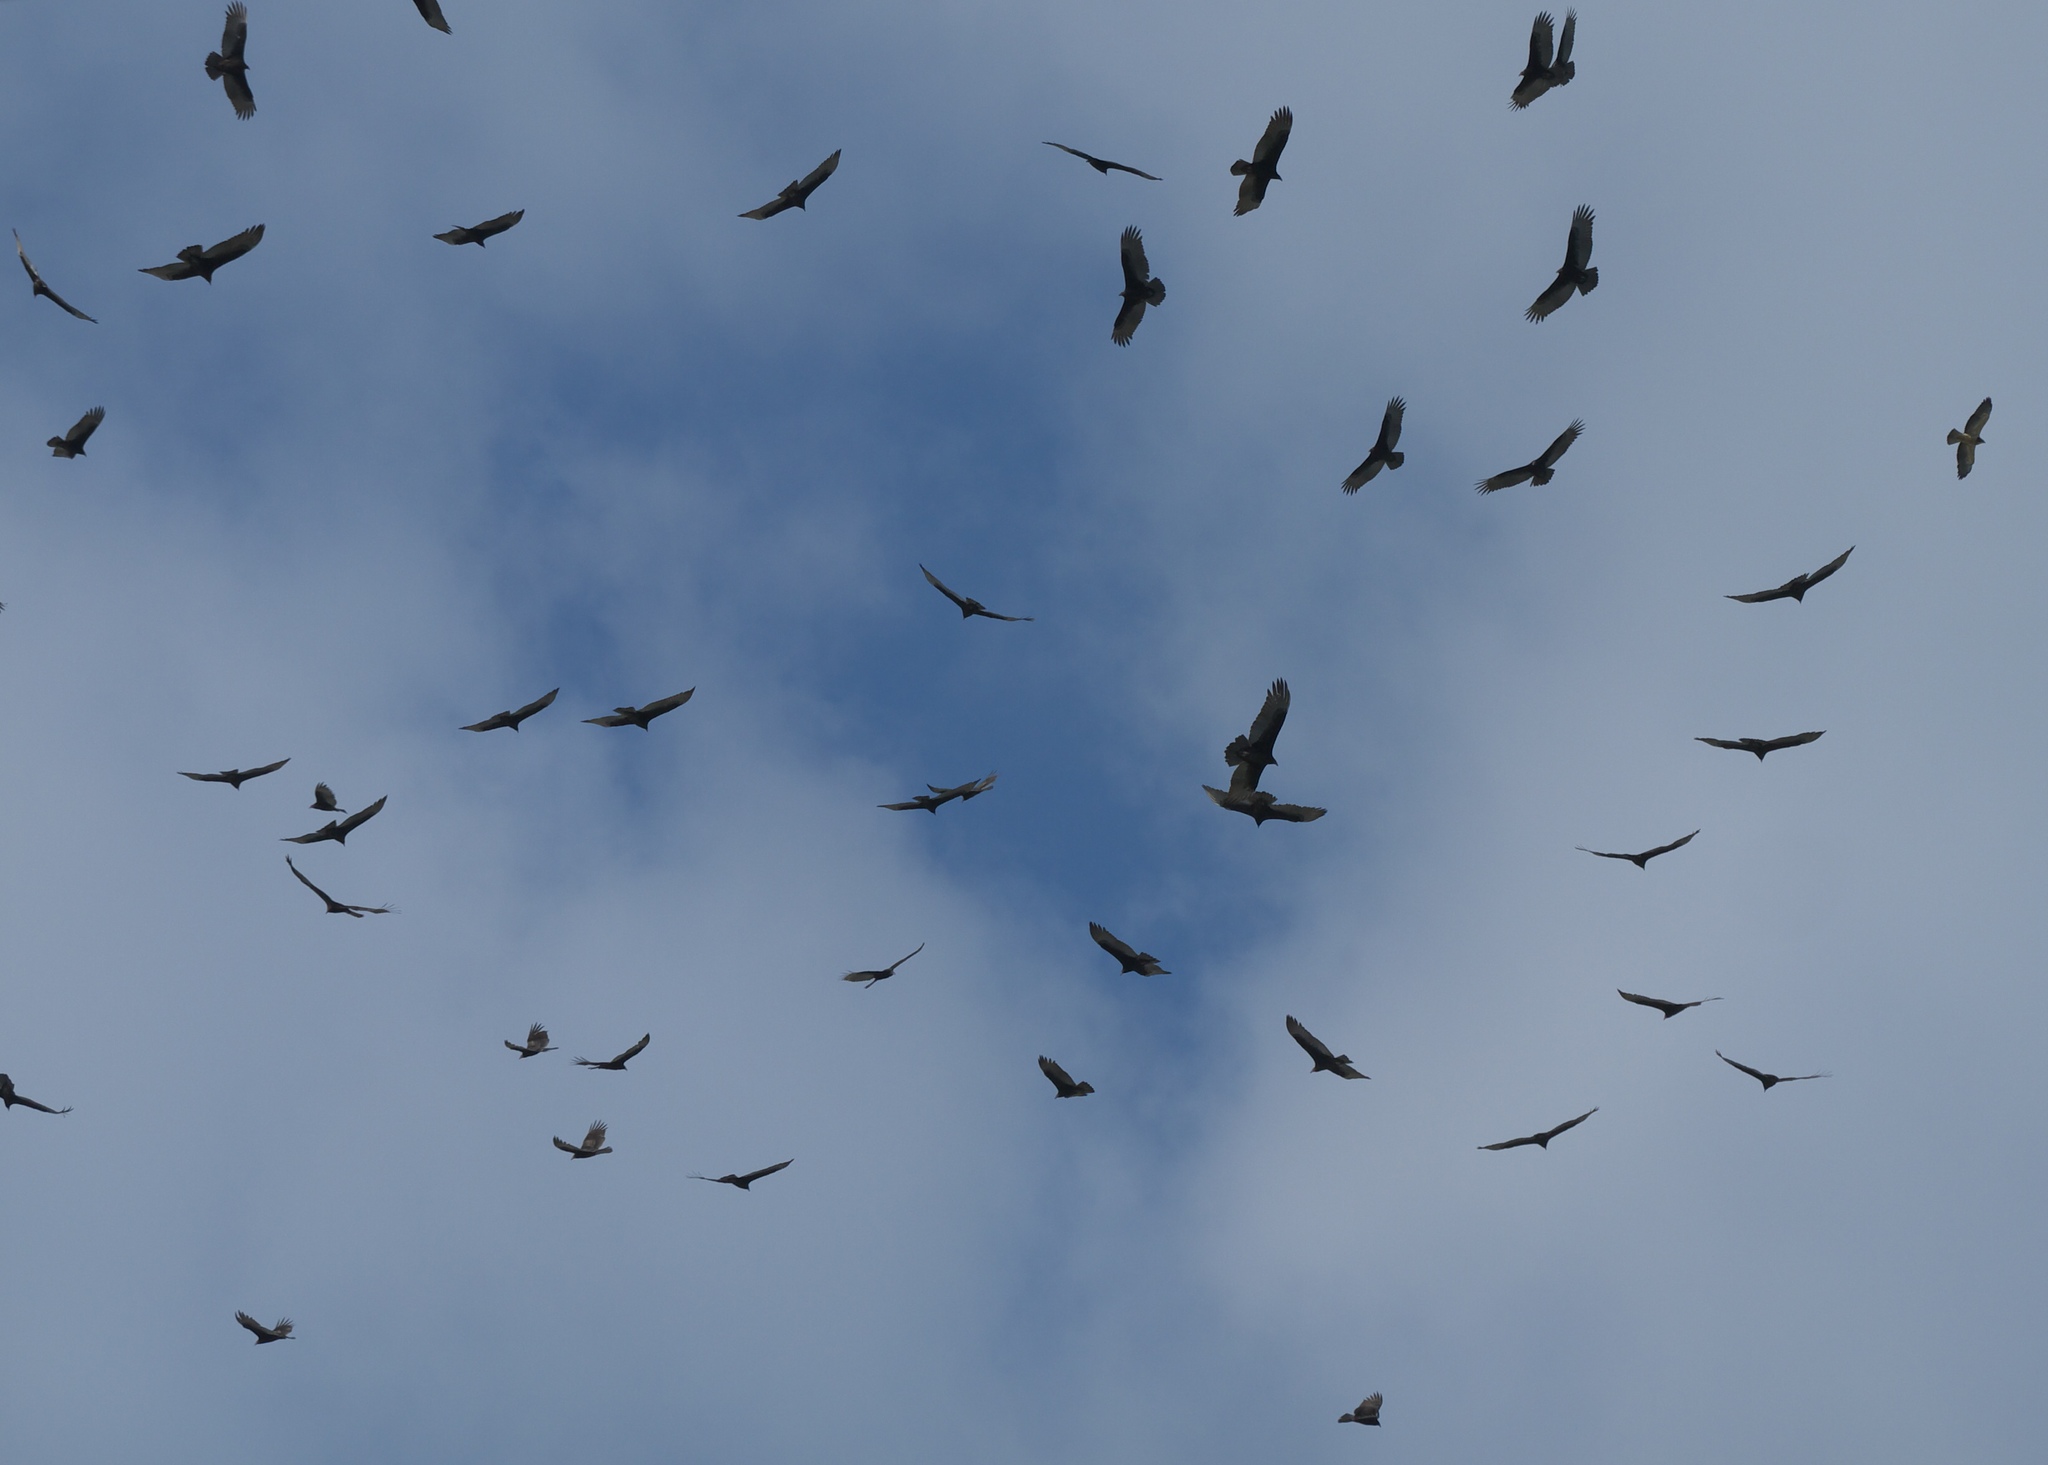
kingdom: Animalia
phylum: Chordata
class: Aves
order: Accipitriformes
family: Cathartidae
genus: Cathartes
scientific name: Cathartes aura
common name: Turkey vulture
